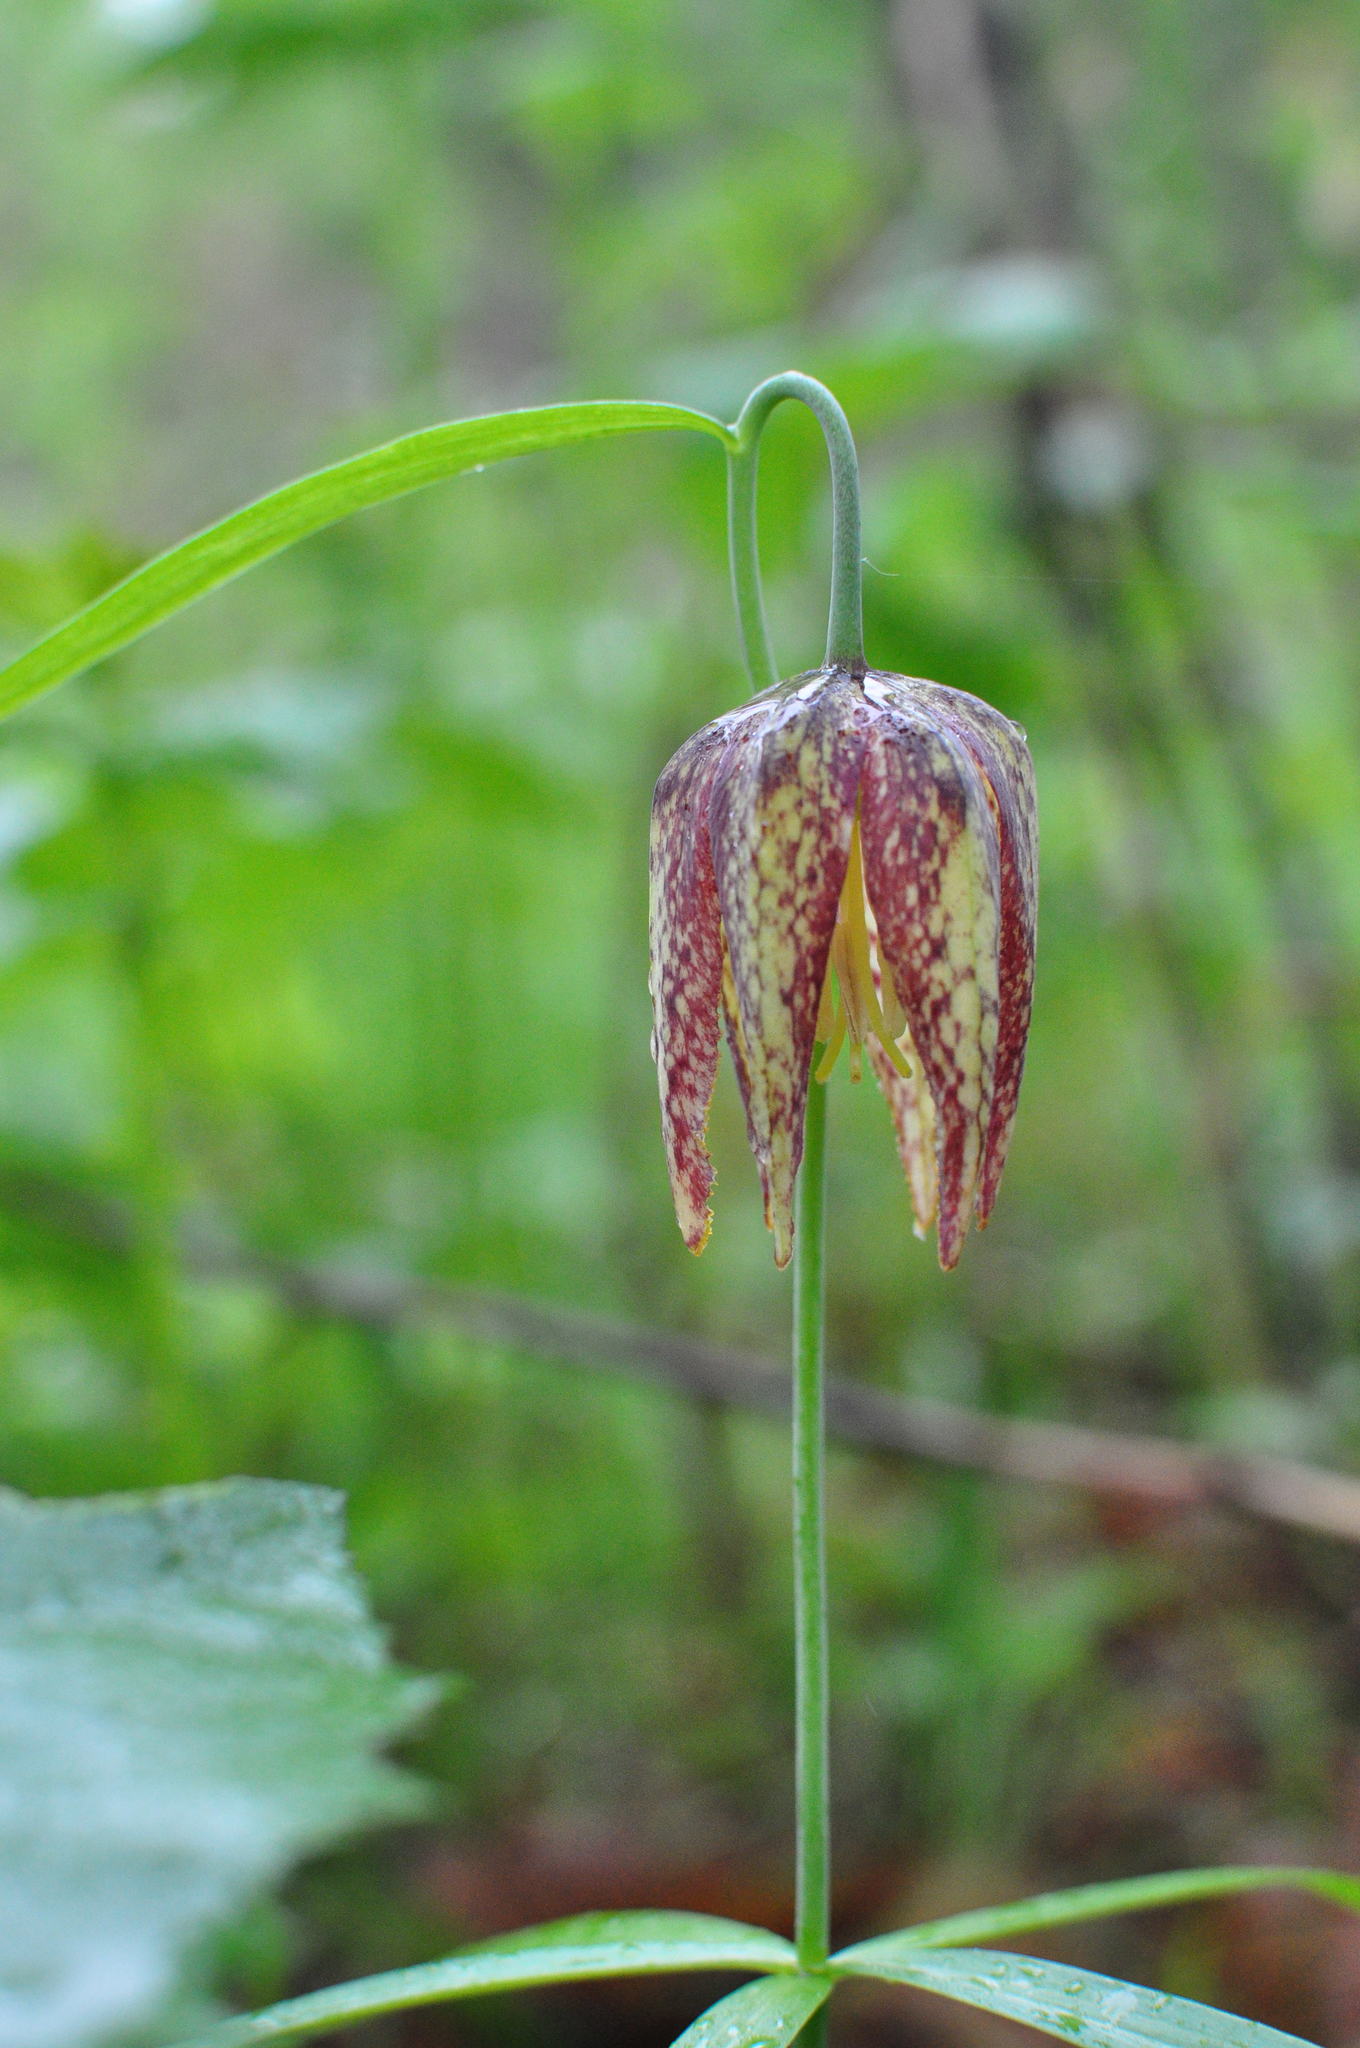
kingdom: Plantae
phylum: Tracheophyta
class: Liliopsida
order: Liliales
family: Liliaceae
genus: Fritillaria
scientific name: Fritillaria maximowiczii
